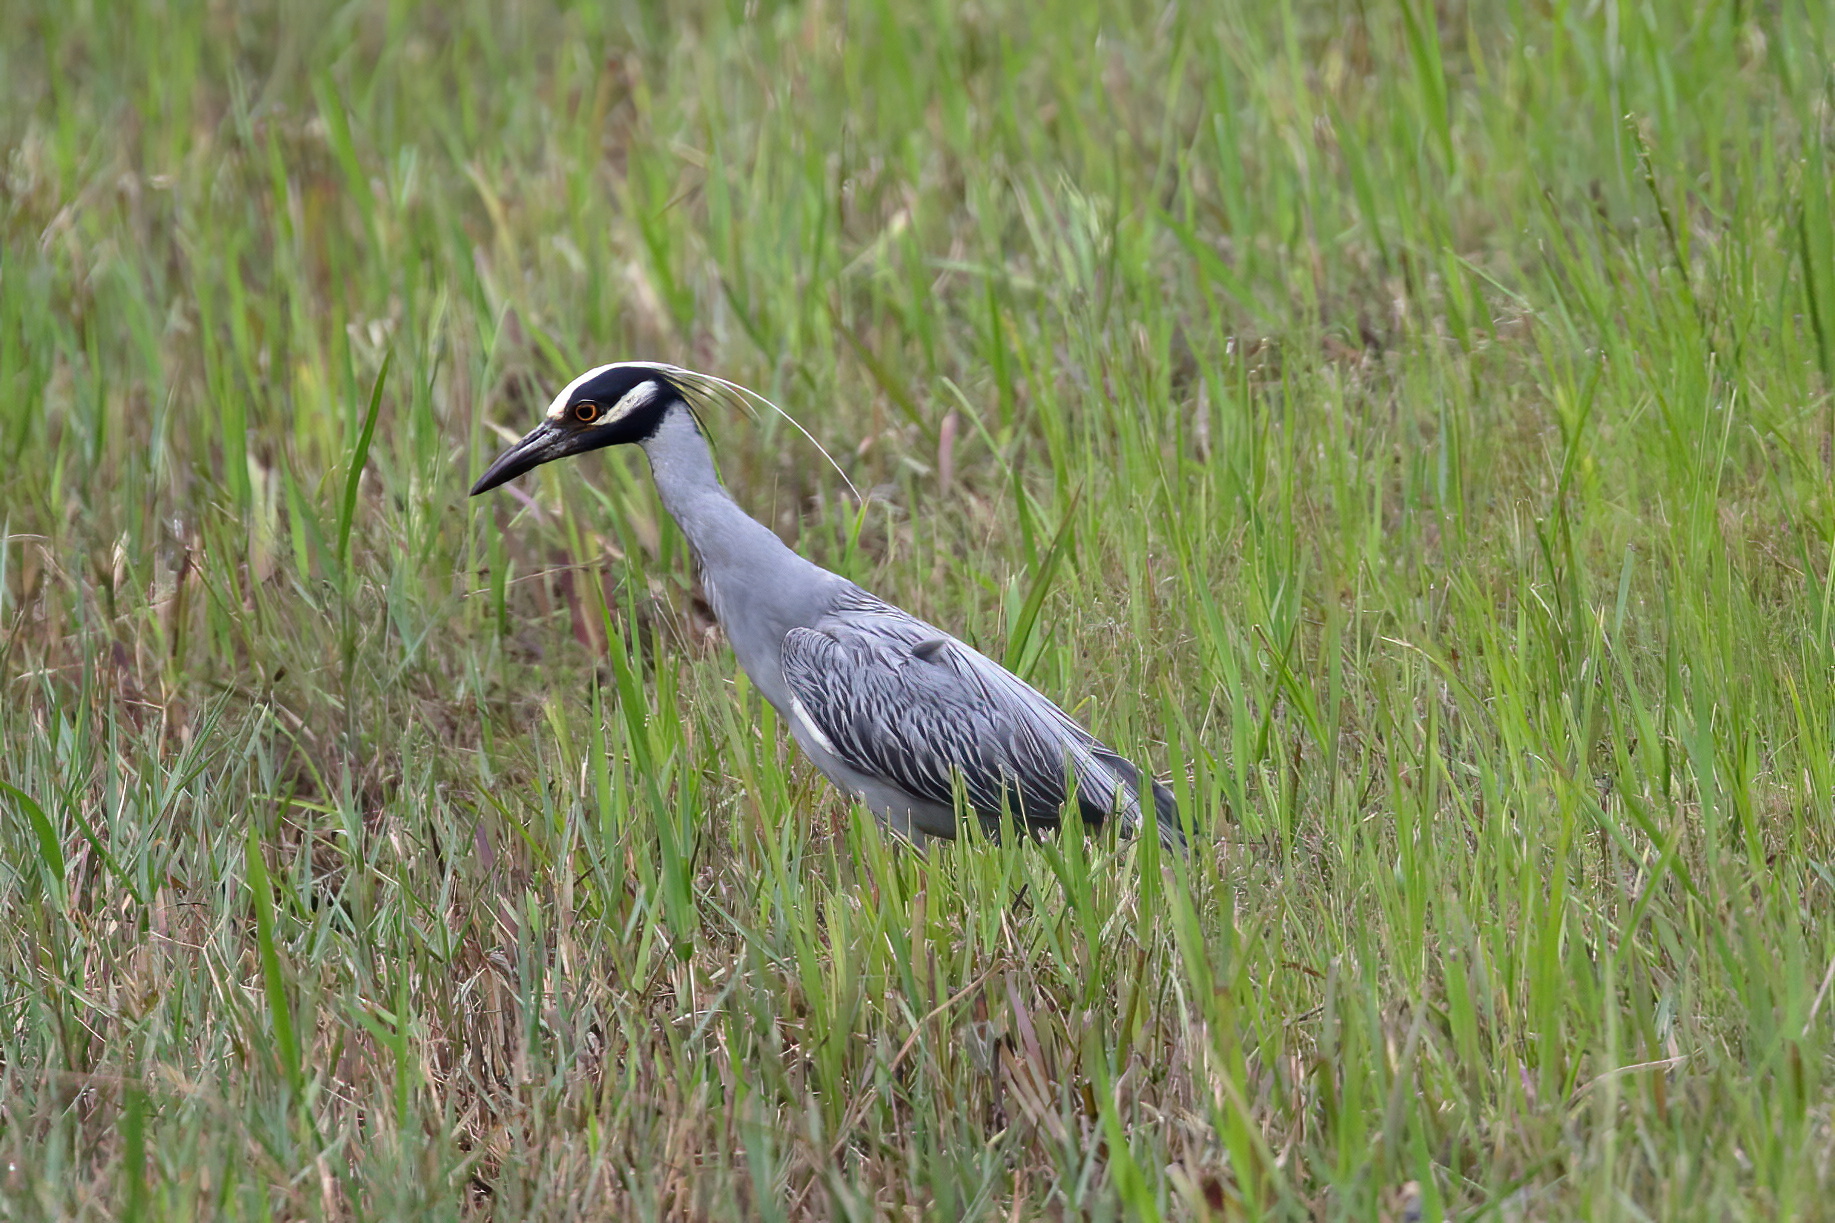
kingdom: Animalia
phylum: Chordata
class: Aves
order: Pelecaniformes
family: Ardeidae
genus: Nyctanassa
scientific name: Nyctanassa violacea
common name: Yellow-crowned night heron
